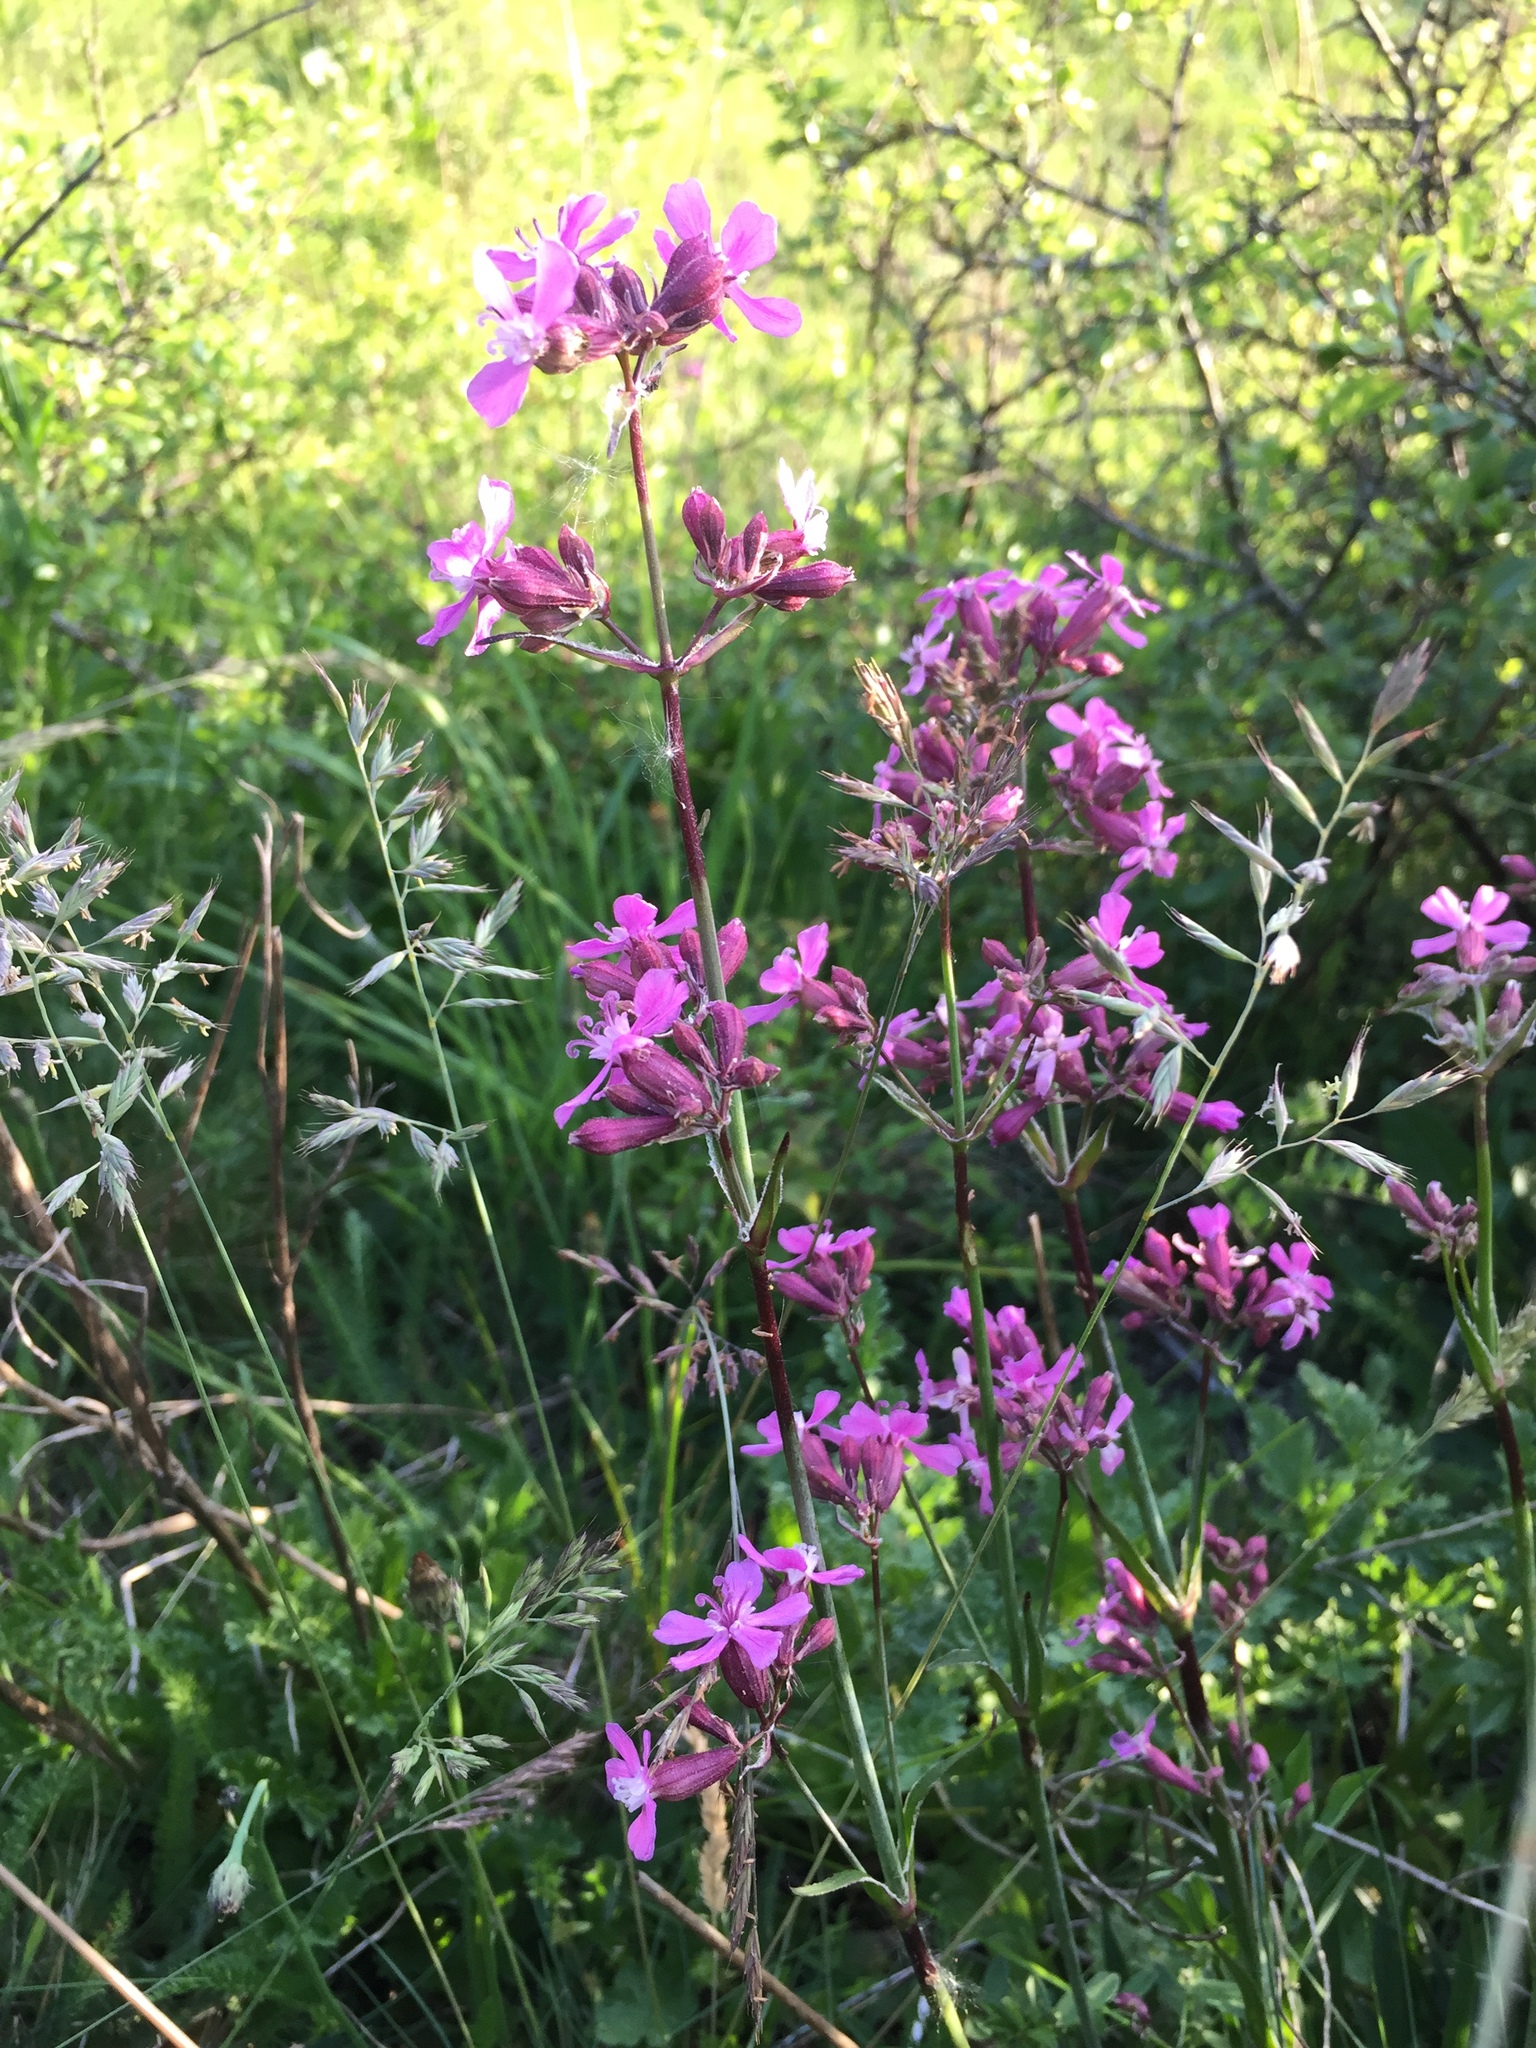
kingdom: Plantae
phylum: Tracheophyta
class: Magnoliopsida
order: Caryophyllales
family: Caryophyllaceae
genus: Viscaria
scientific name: Viscaria vulgaris
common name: Clammy campion
